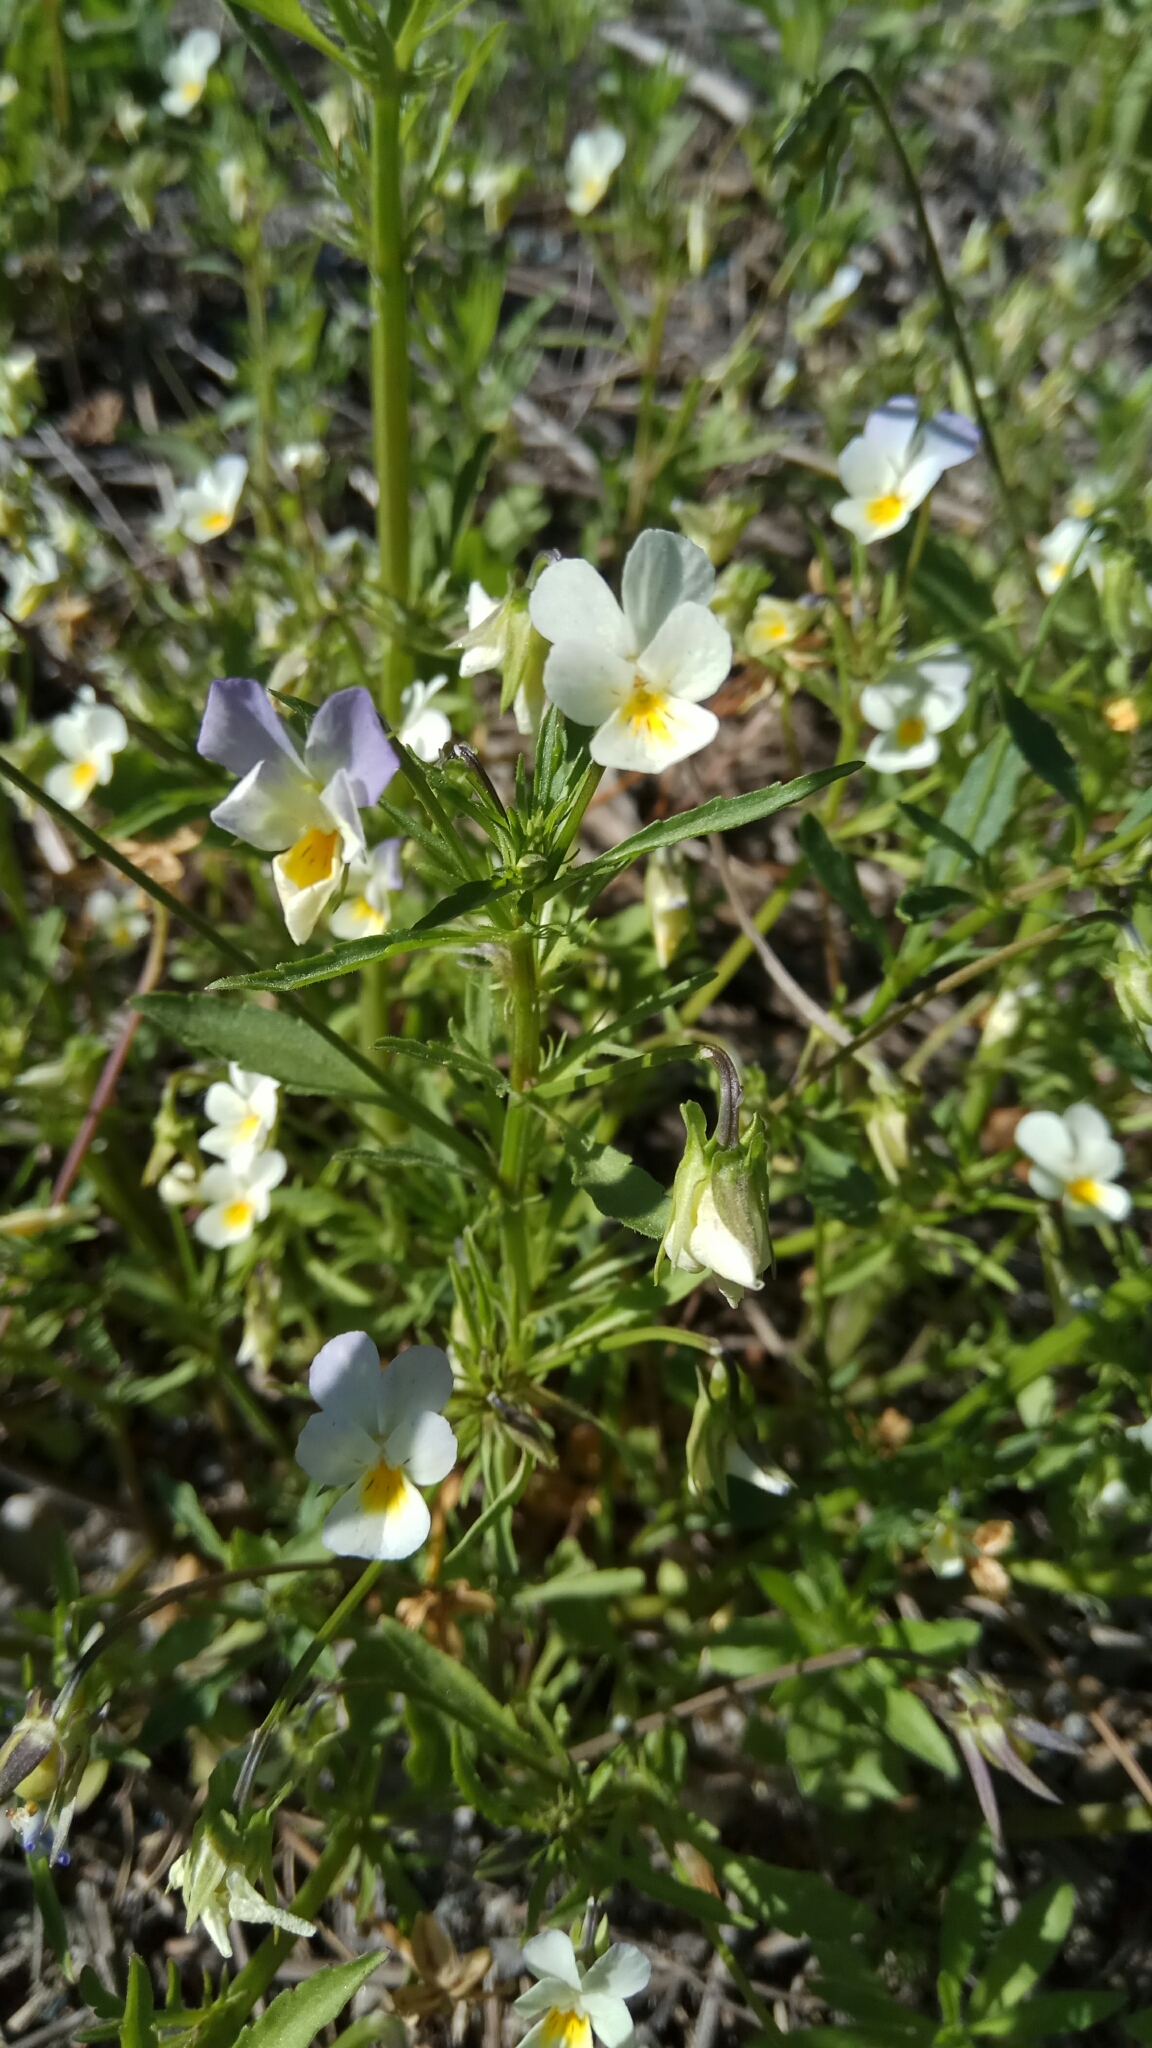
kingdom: Plantae
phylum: Tracheophyta
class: Magnoliopsida
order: Malpighiales
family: Violaceae
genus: Viola
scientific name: Viola contempta
